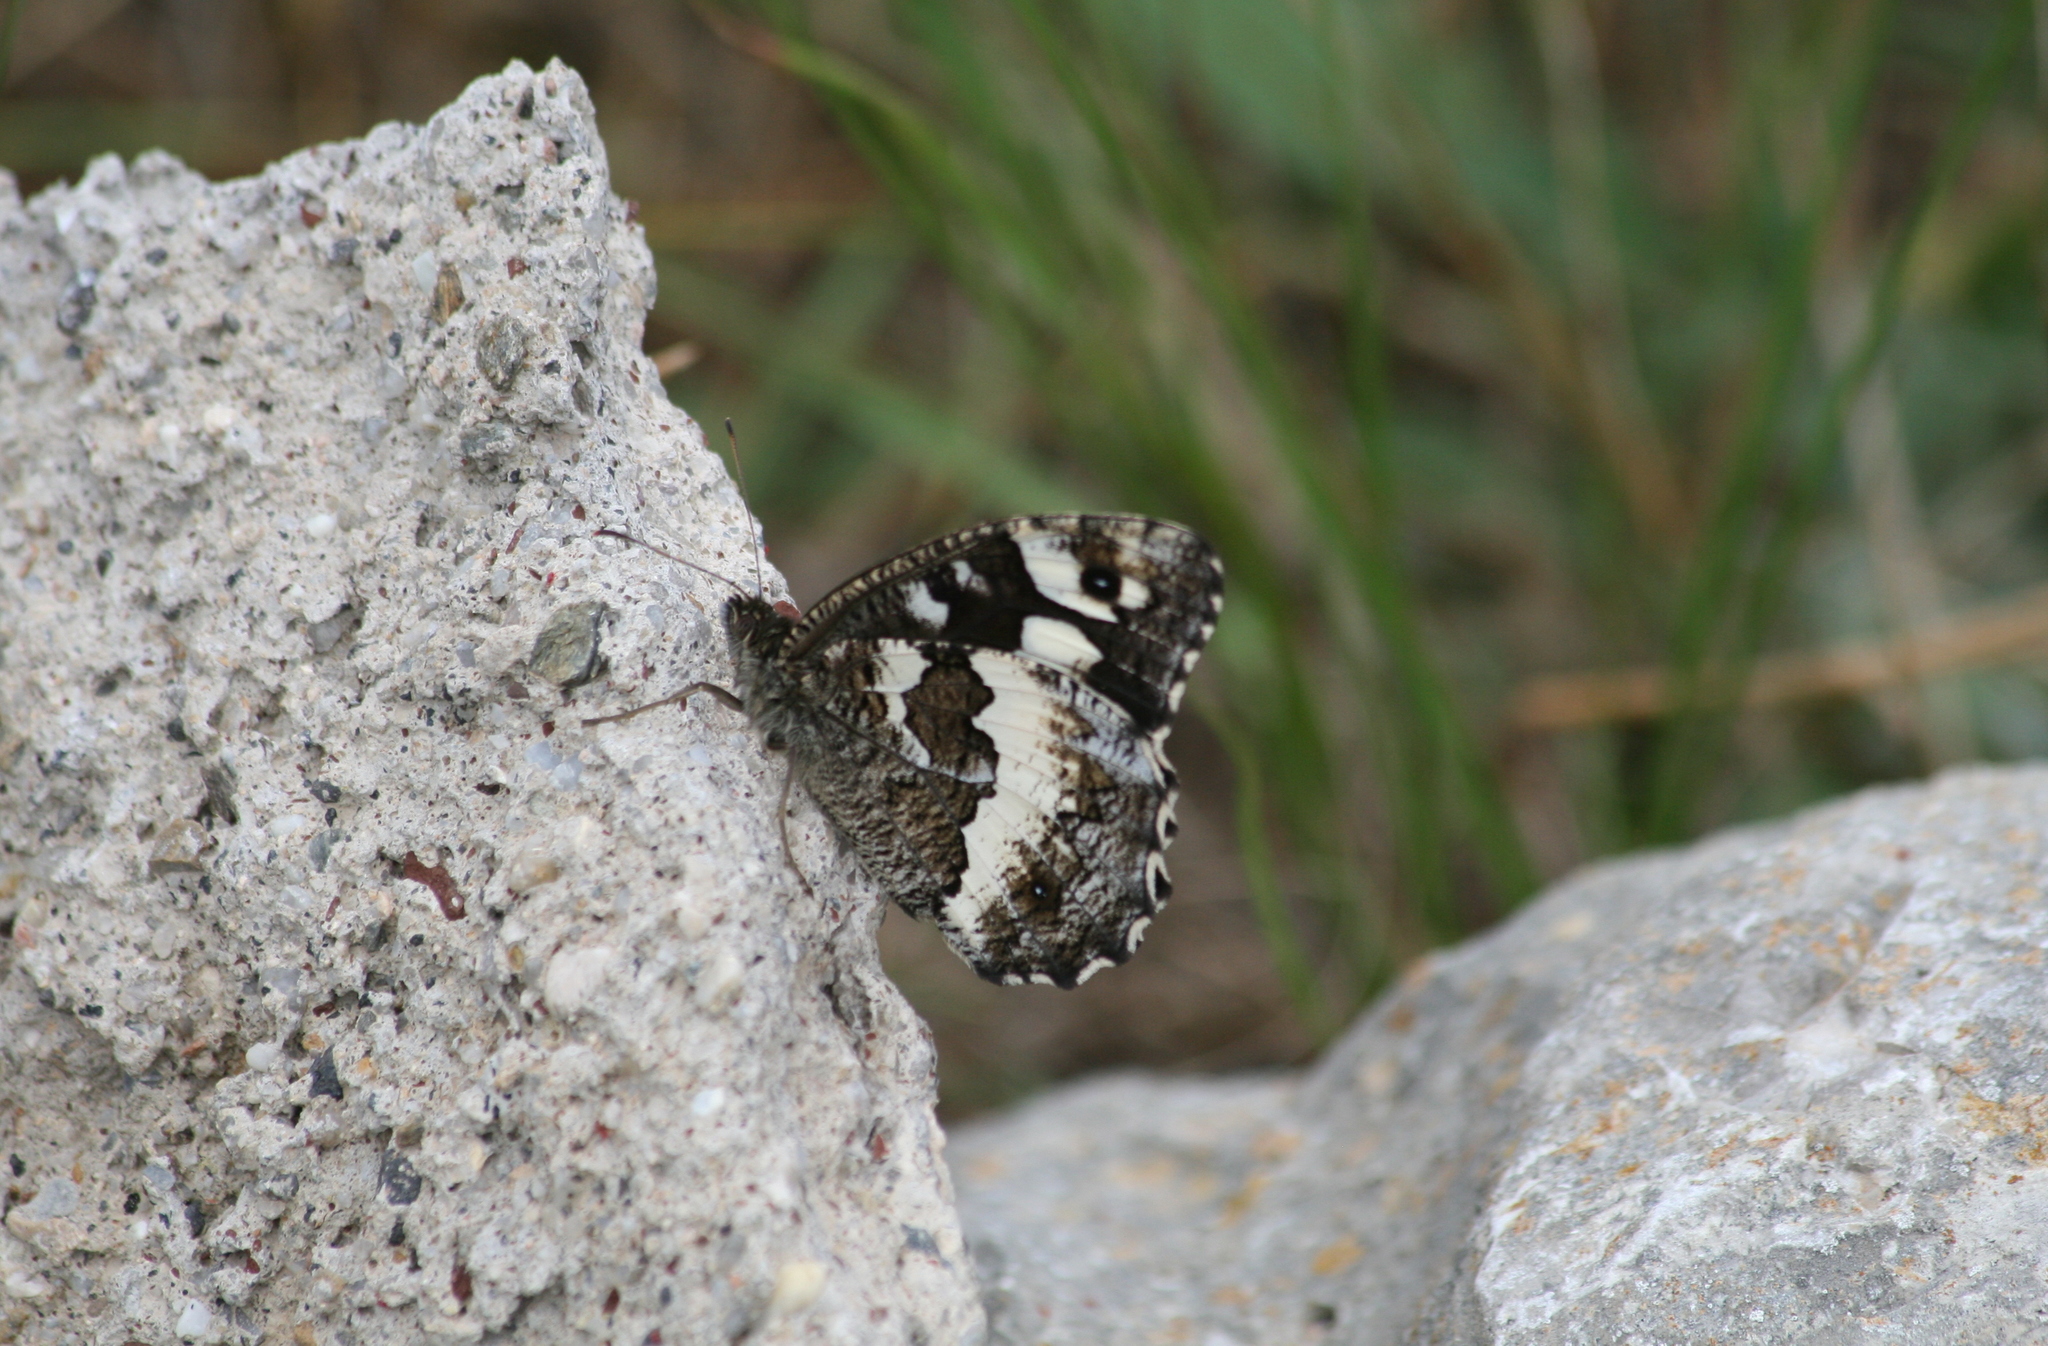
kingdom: Animalia
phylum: Arthropoda
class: Insecta
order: Lepidoptera
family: Lycaenidae
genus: Loweia
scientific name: Loweia tityrus
